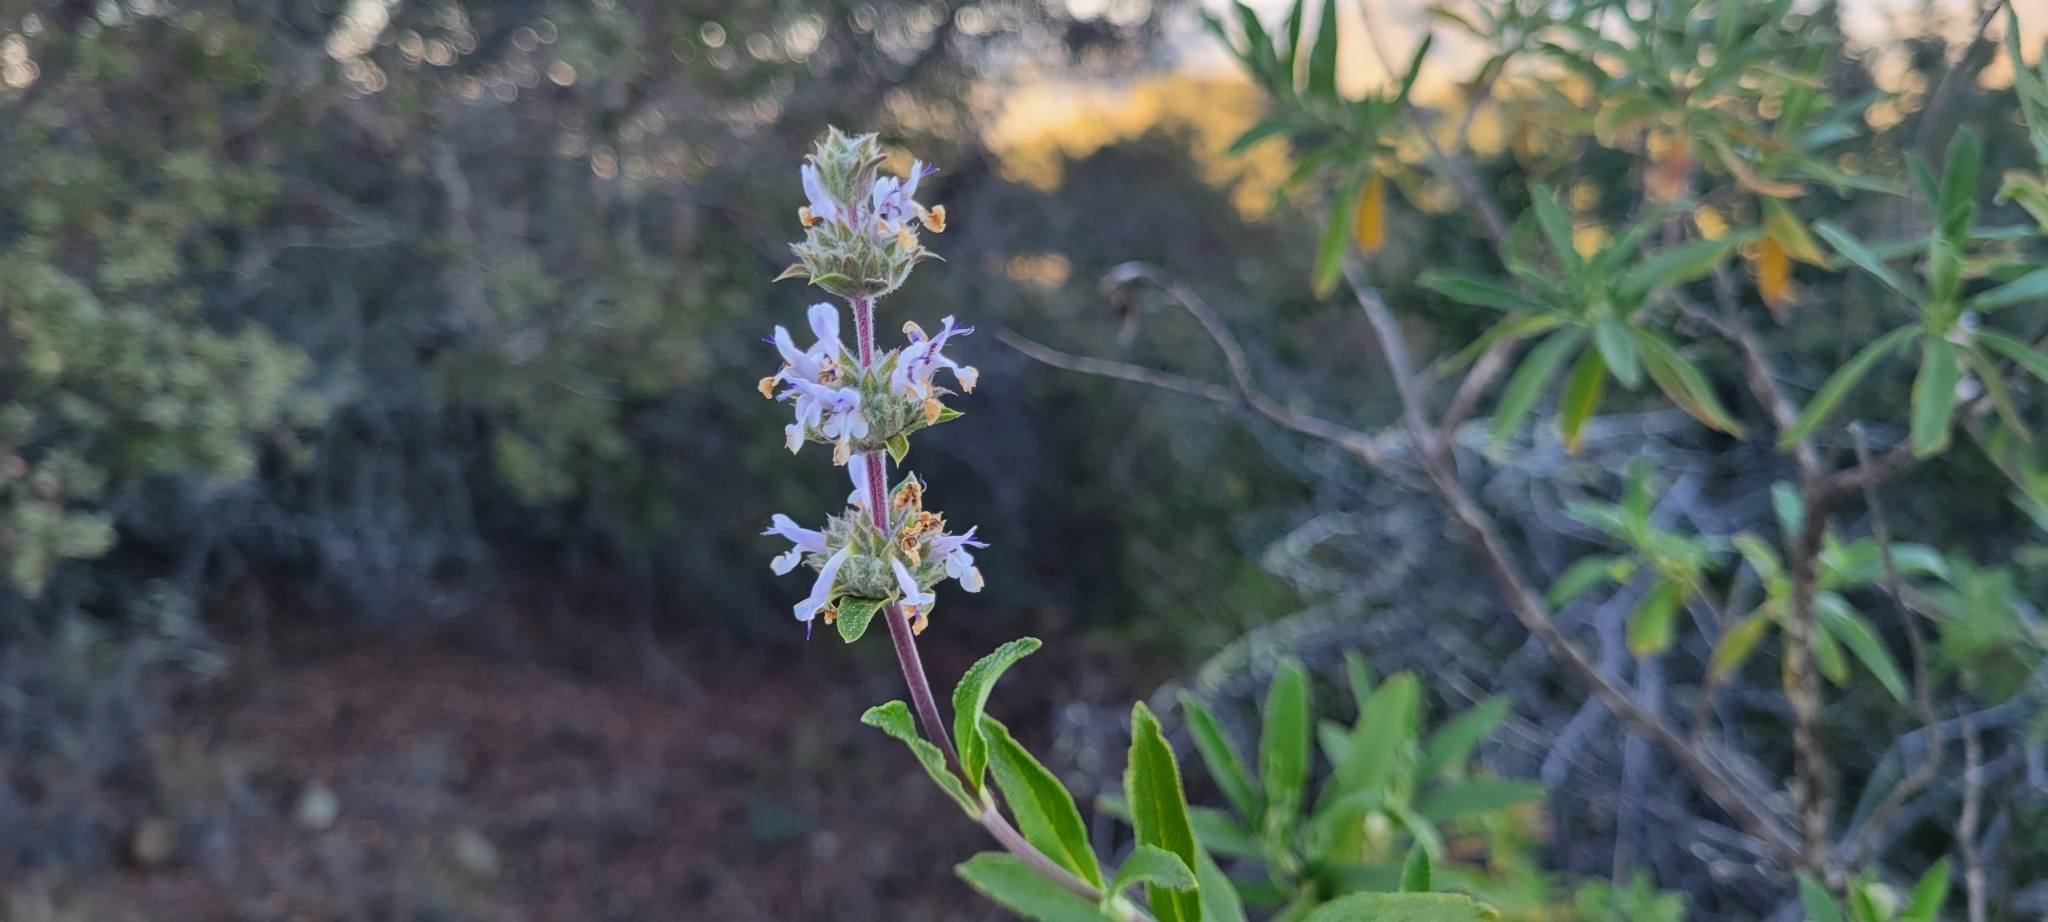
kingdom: Plantae
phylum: Tracheophyta
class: Magnoliopsida
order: Lamiales
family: Lamiaceae
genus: Salvia
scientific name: Salvia mellifera
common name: Black sage
